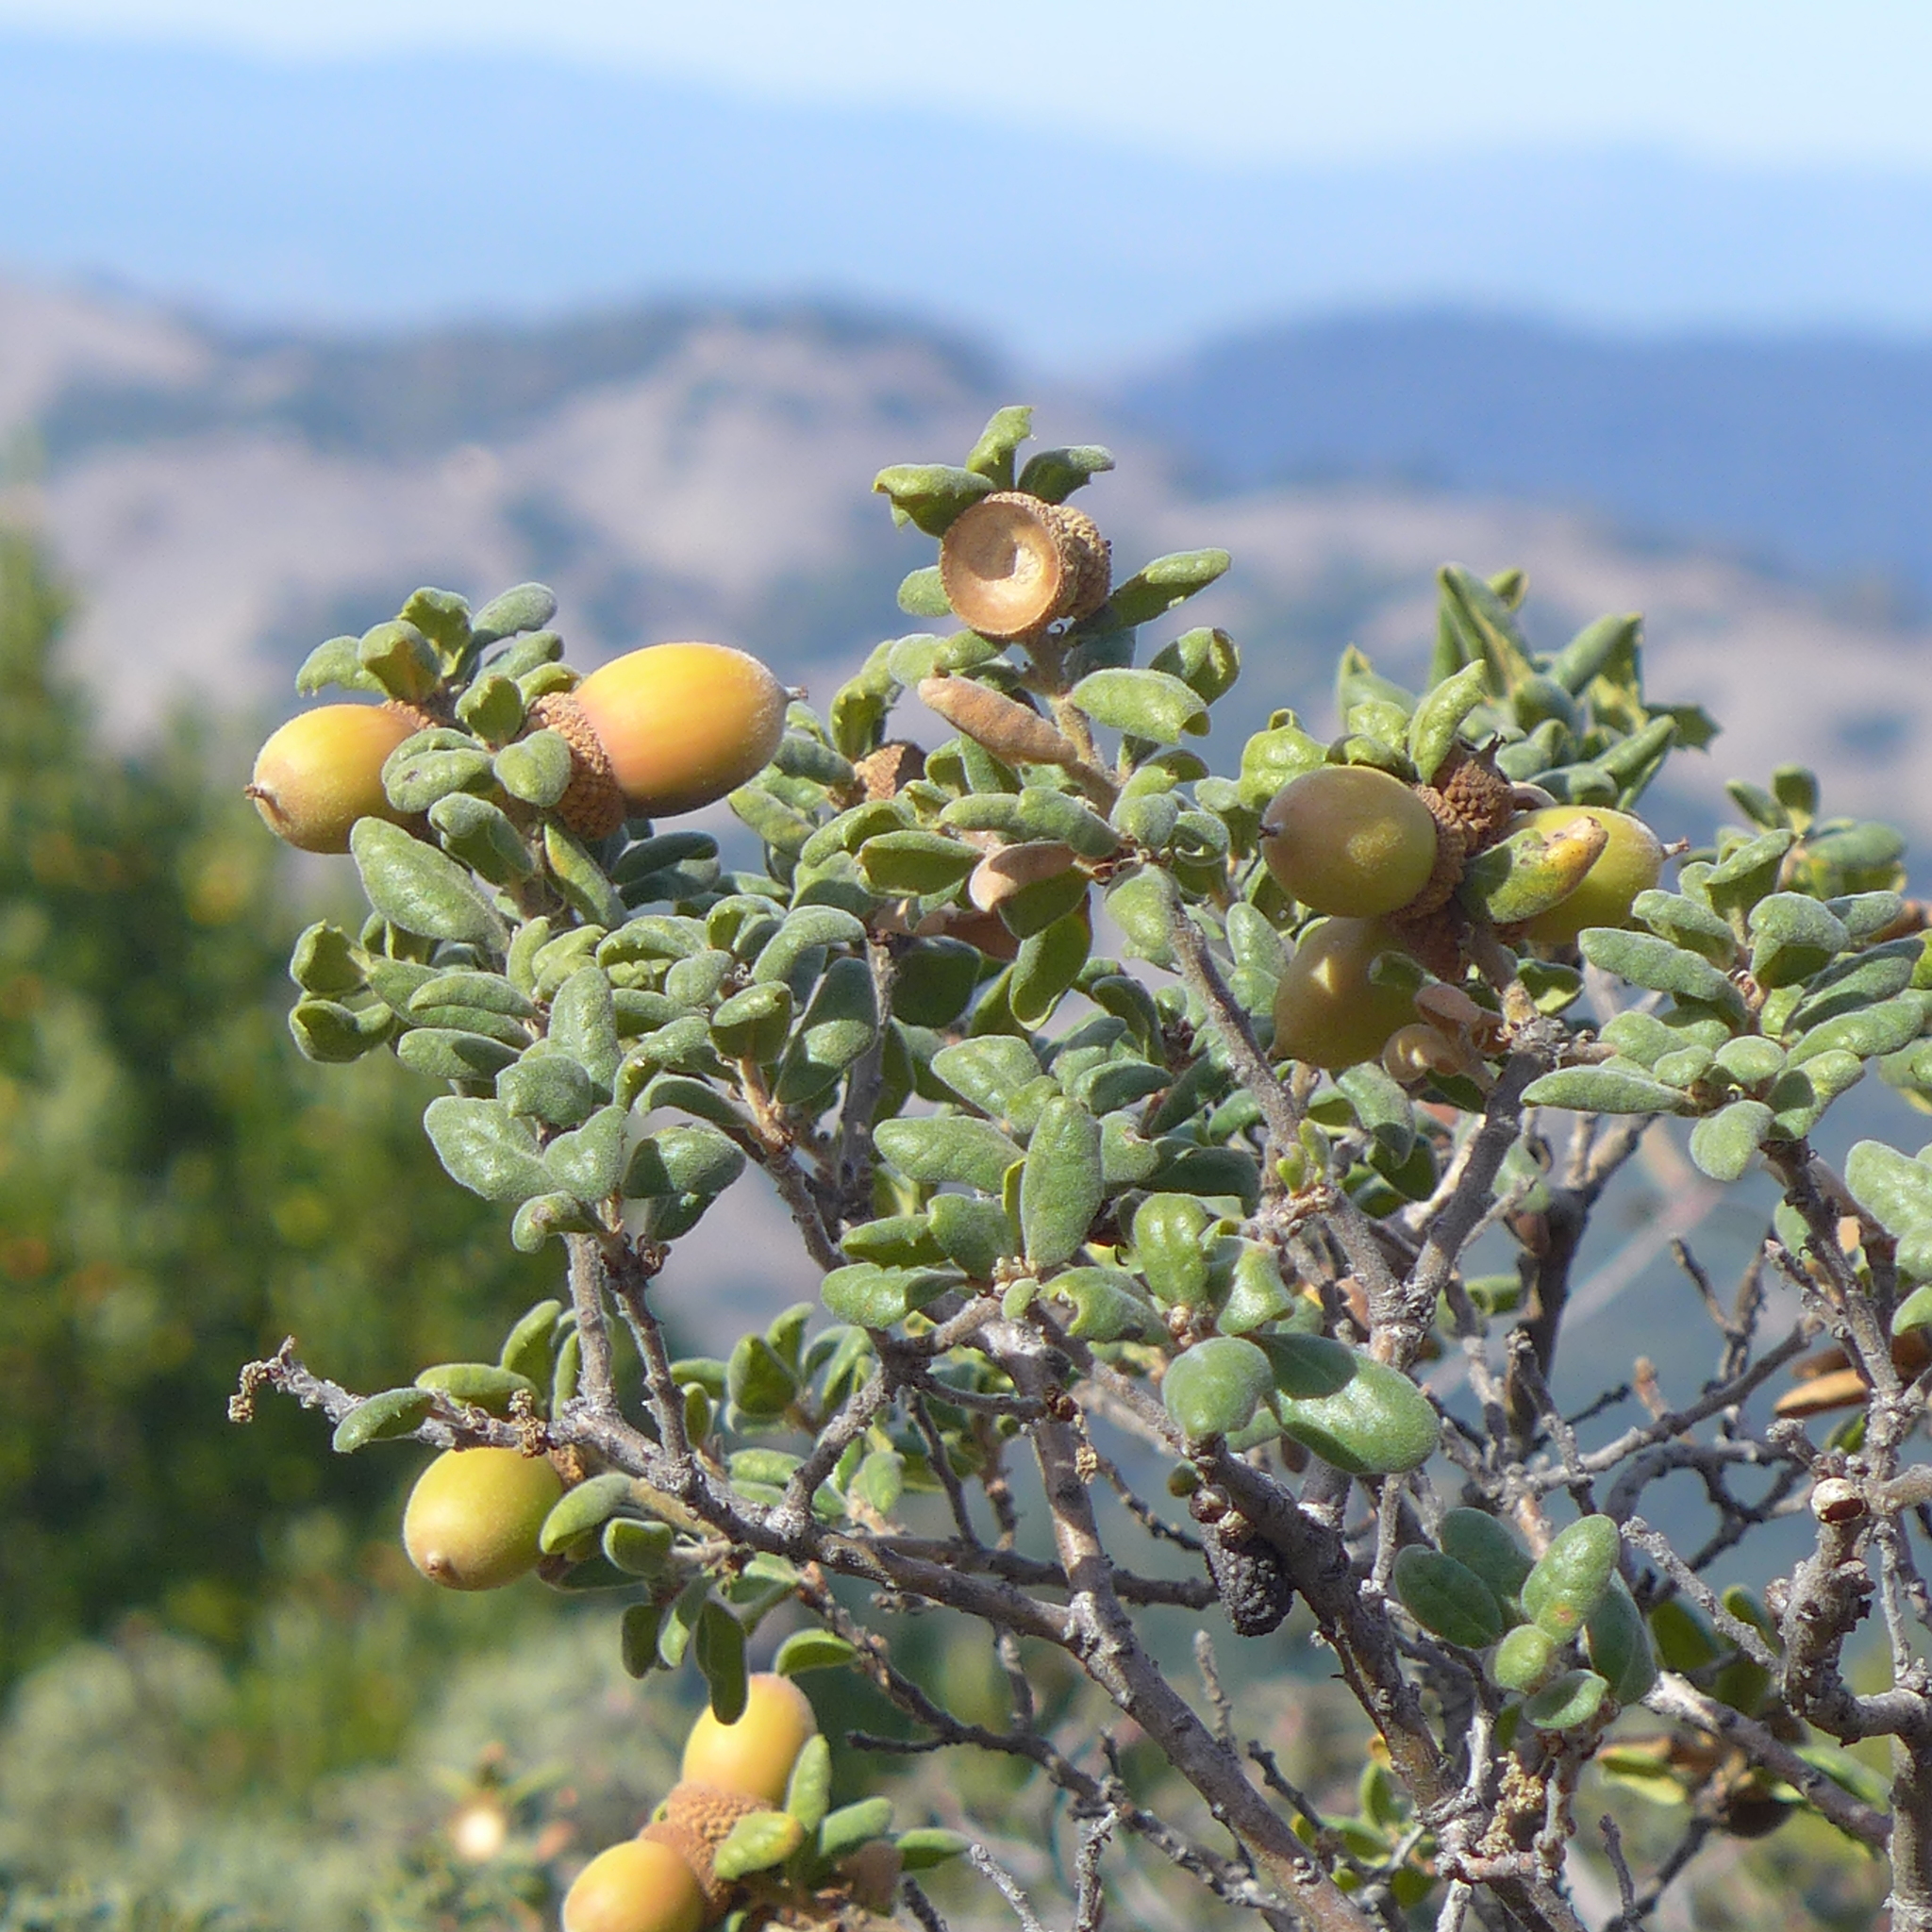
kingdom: Plantae
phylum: Tracheophyta
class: Magnoliopsida
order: Fagales
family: Fagaceae
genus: Quercus
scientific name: Quercus durata
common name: Leather oak
